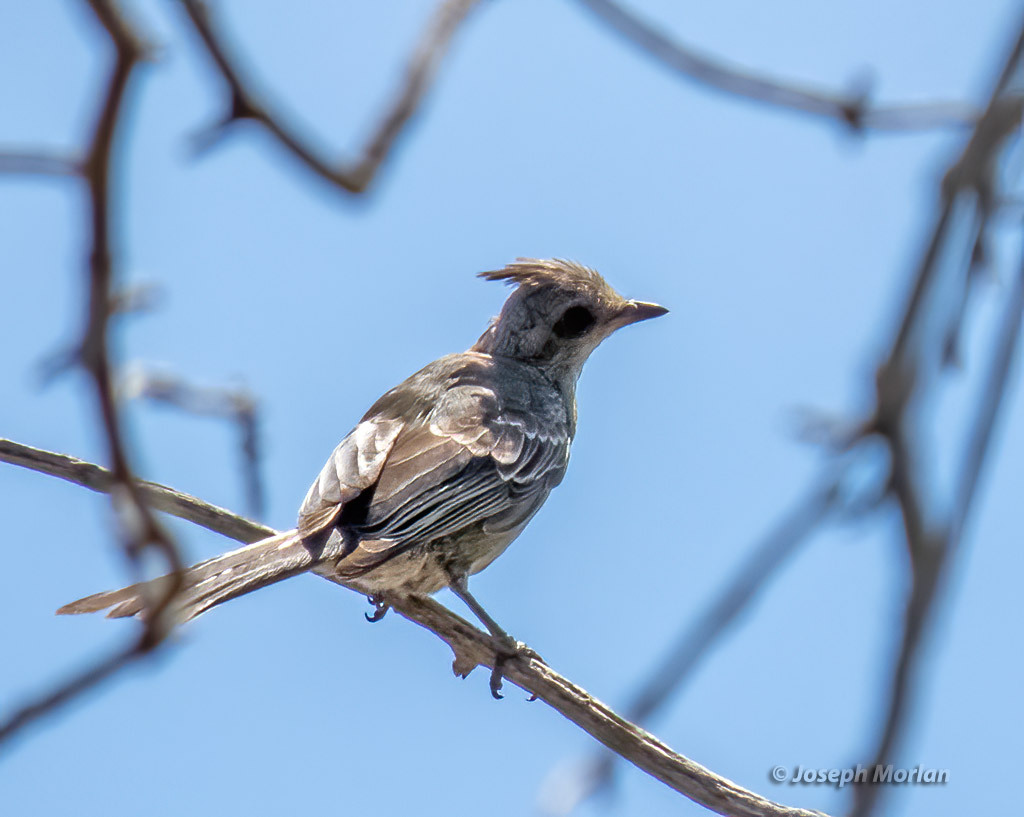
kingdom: Animalia
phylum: Chordata
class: Aves
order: Passeriformes
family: Ptilogonatidae
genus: Phainopepla
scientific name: Phainopepla nitens
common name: Phainopepla
